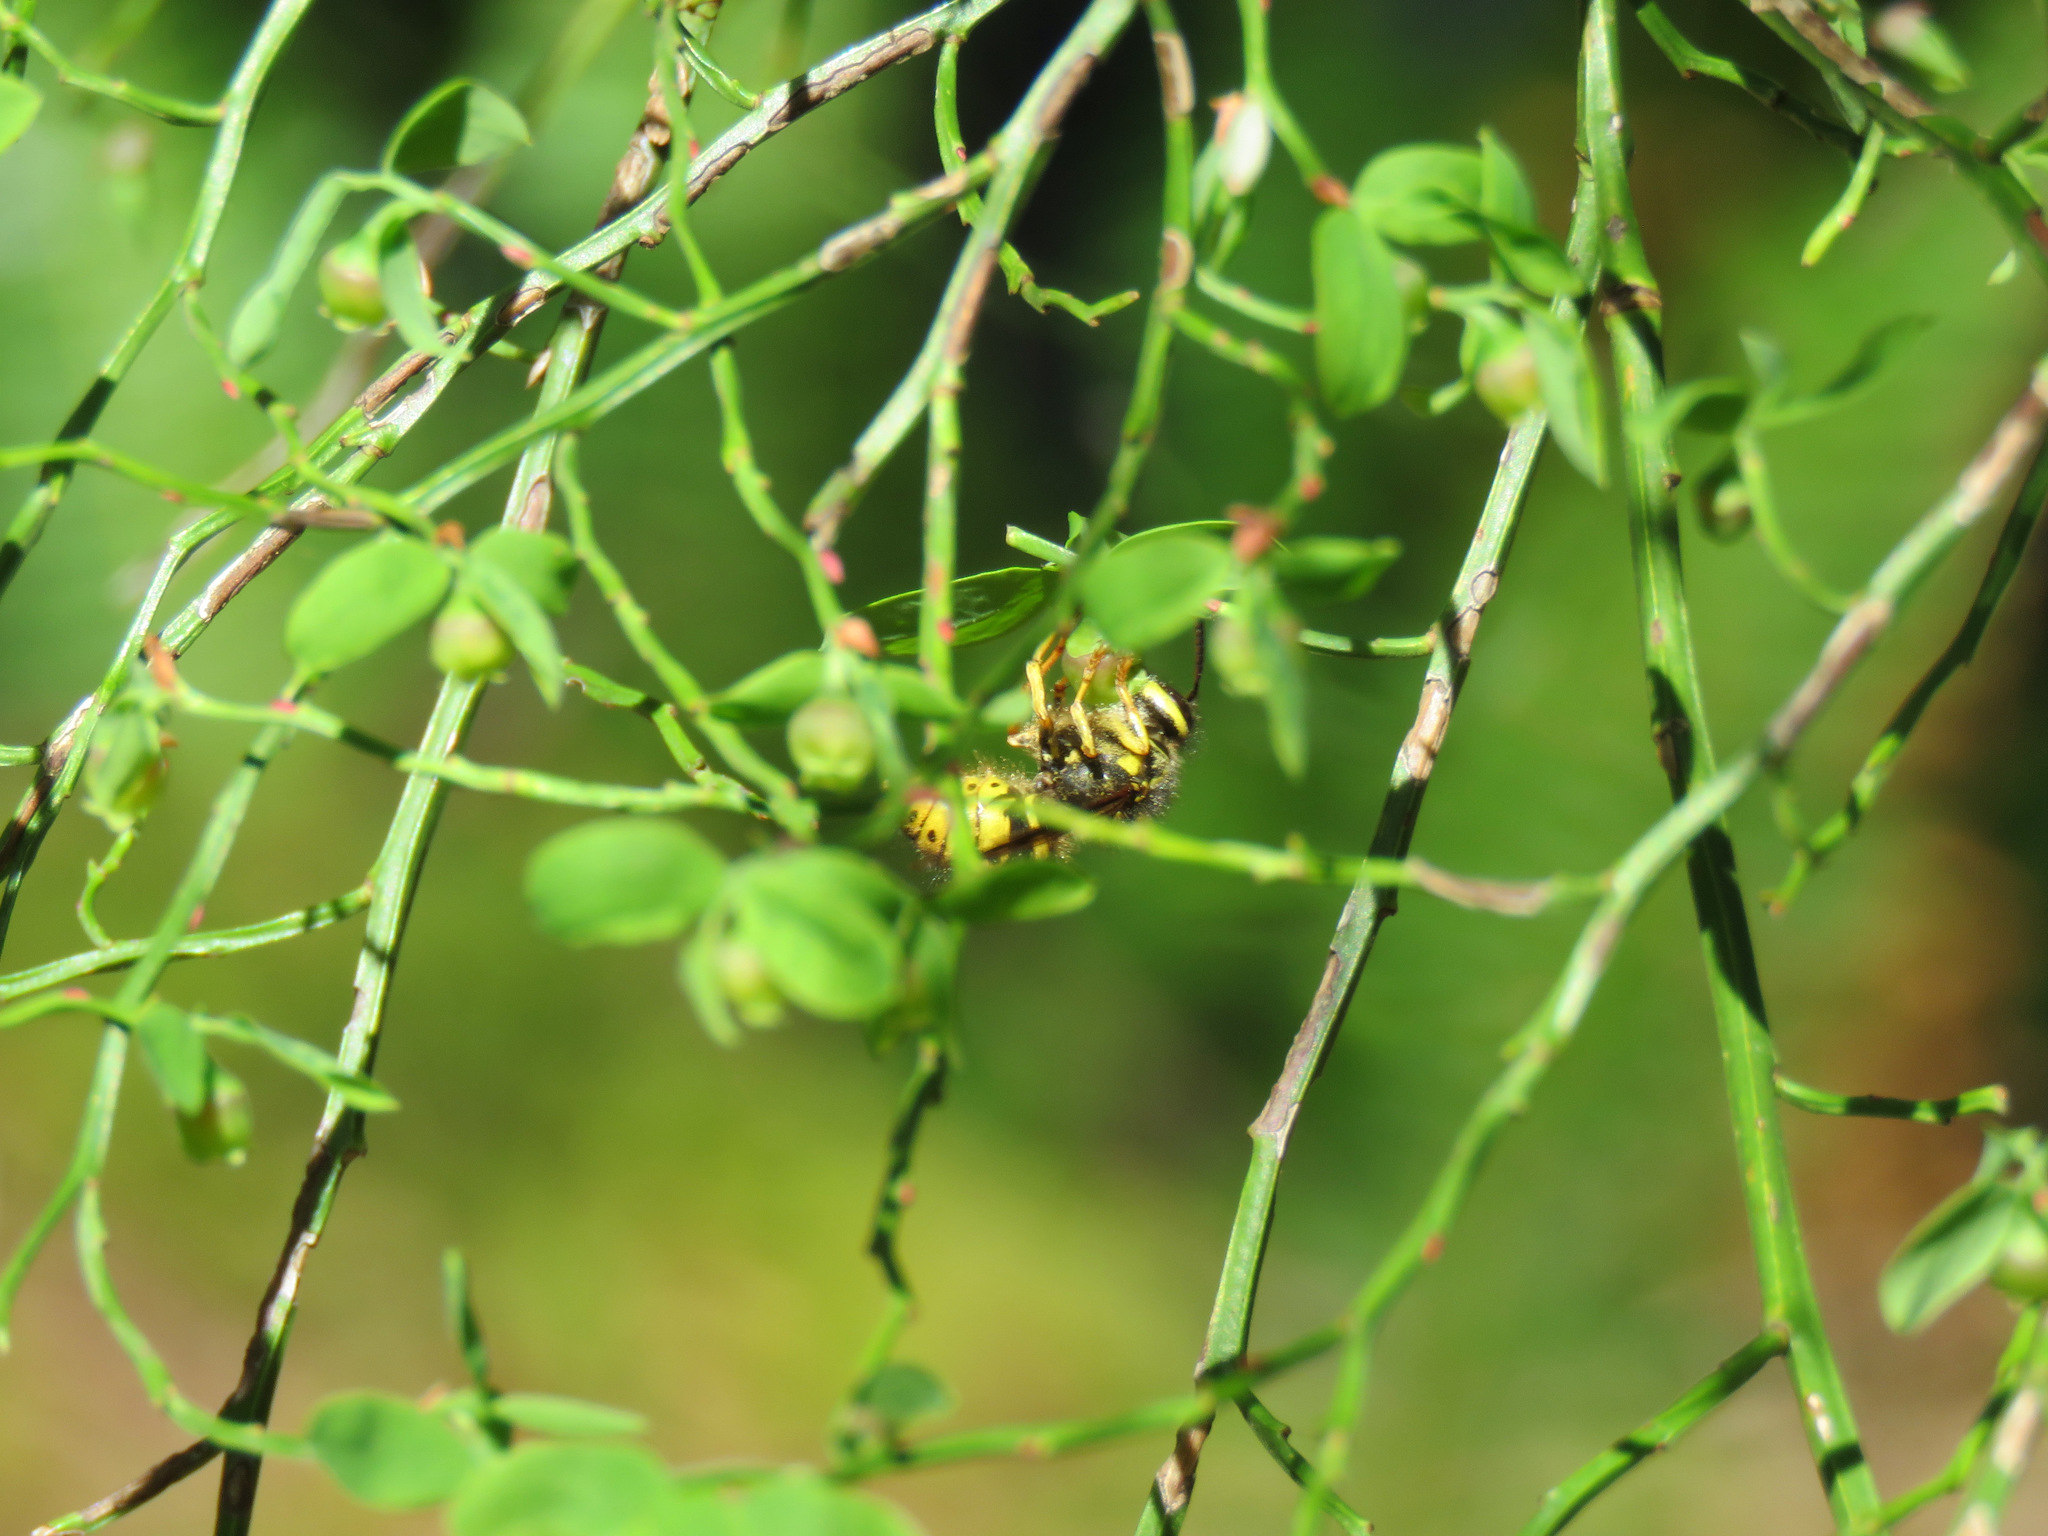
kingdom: Animalia
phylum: Arthropoda
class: Insecta
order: Hymenoptera
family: Vespidae
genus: Dolichovespula
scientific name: Dolichovespula arenaria
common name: Aerial yellowjacket
